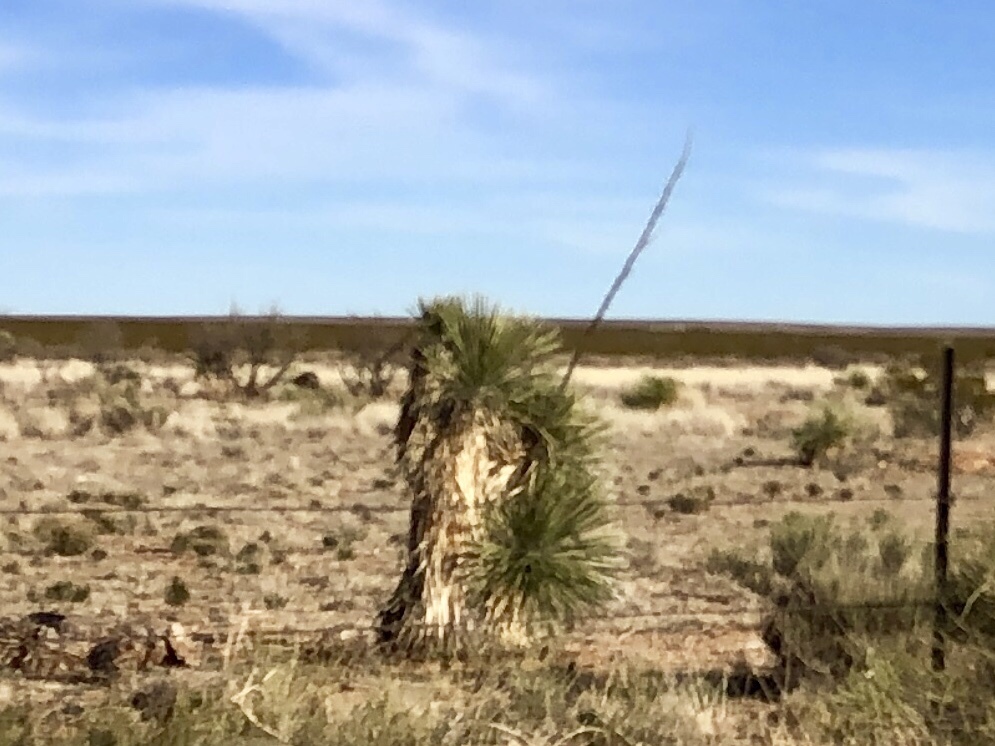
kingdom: Plantae
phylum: Tracheophyta
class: Liliopsida
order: Asparagales
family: Asparagaceae
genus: Yucca
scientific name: Yucca elata
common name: Palmella
